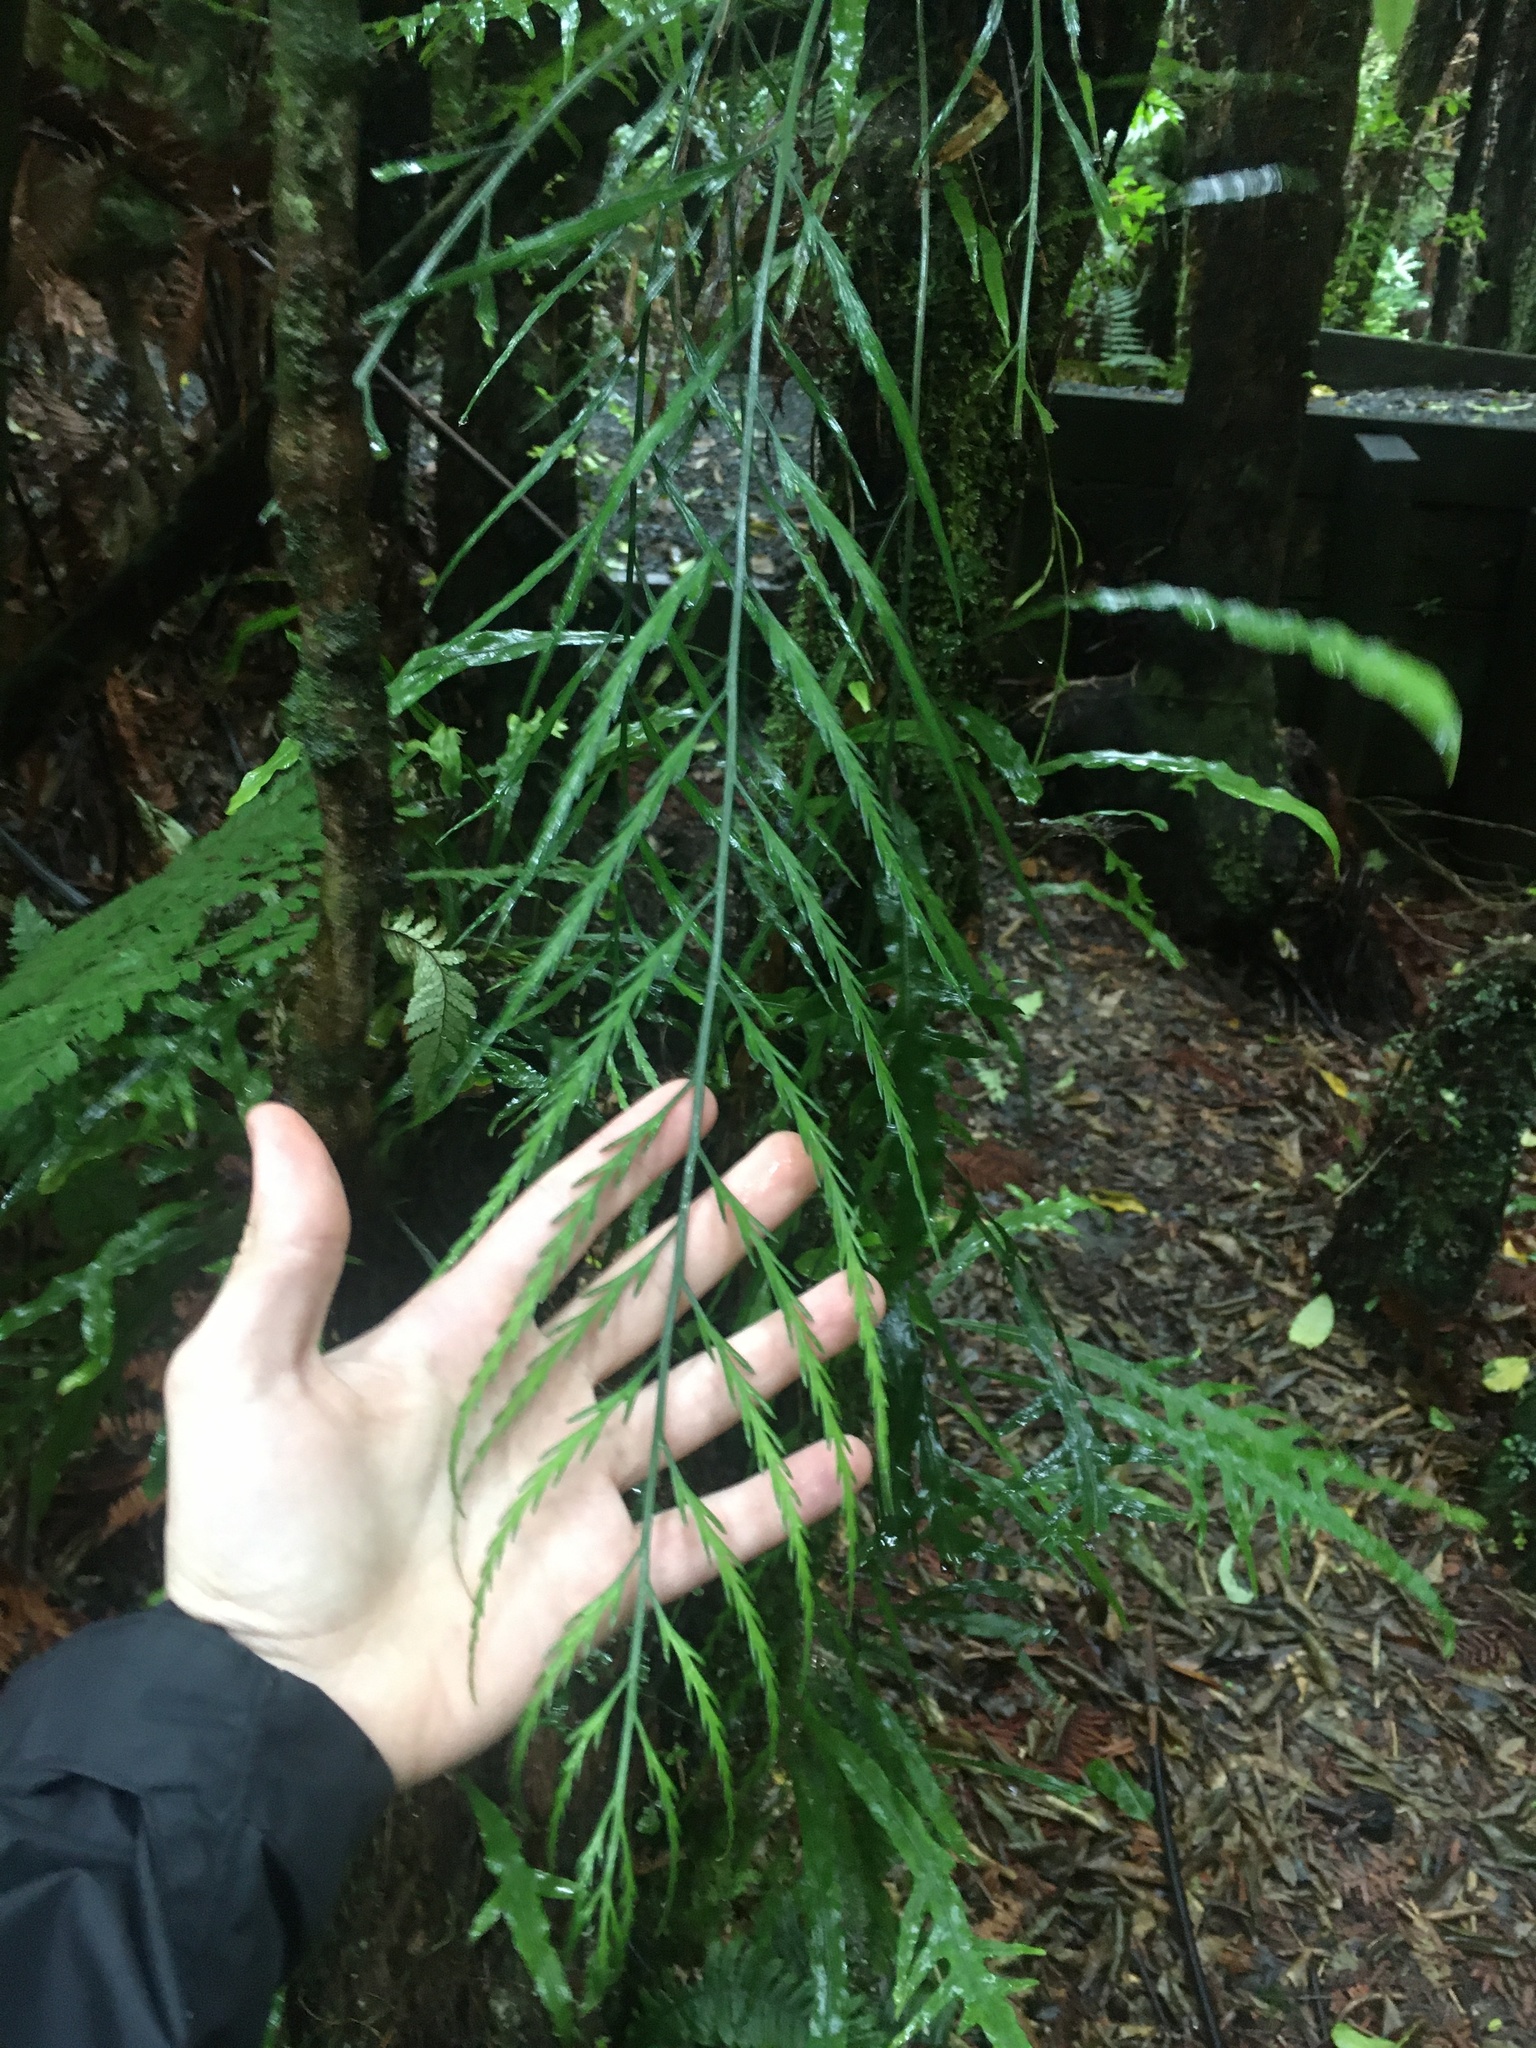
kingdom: Plantae
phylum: Tracheophyta
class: Polypodiopsida
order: Polypodiales
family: Aspleniaceae
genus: Asplenium
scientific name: Asplenium flaccidum
